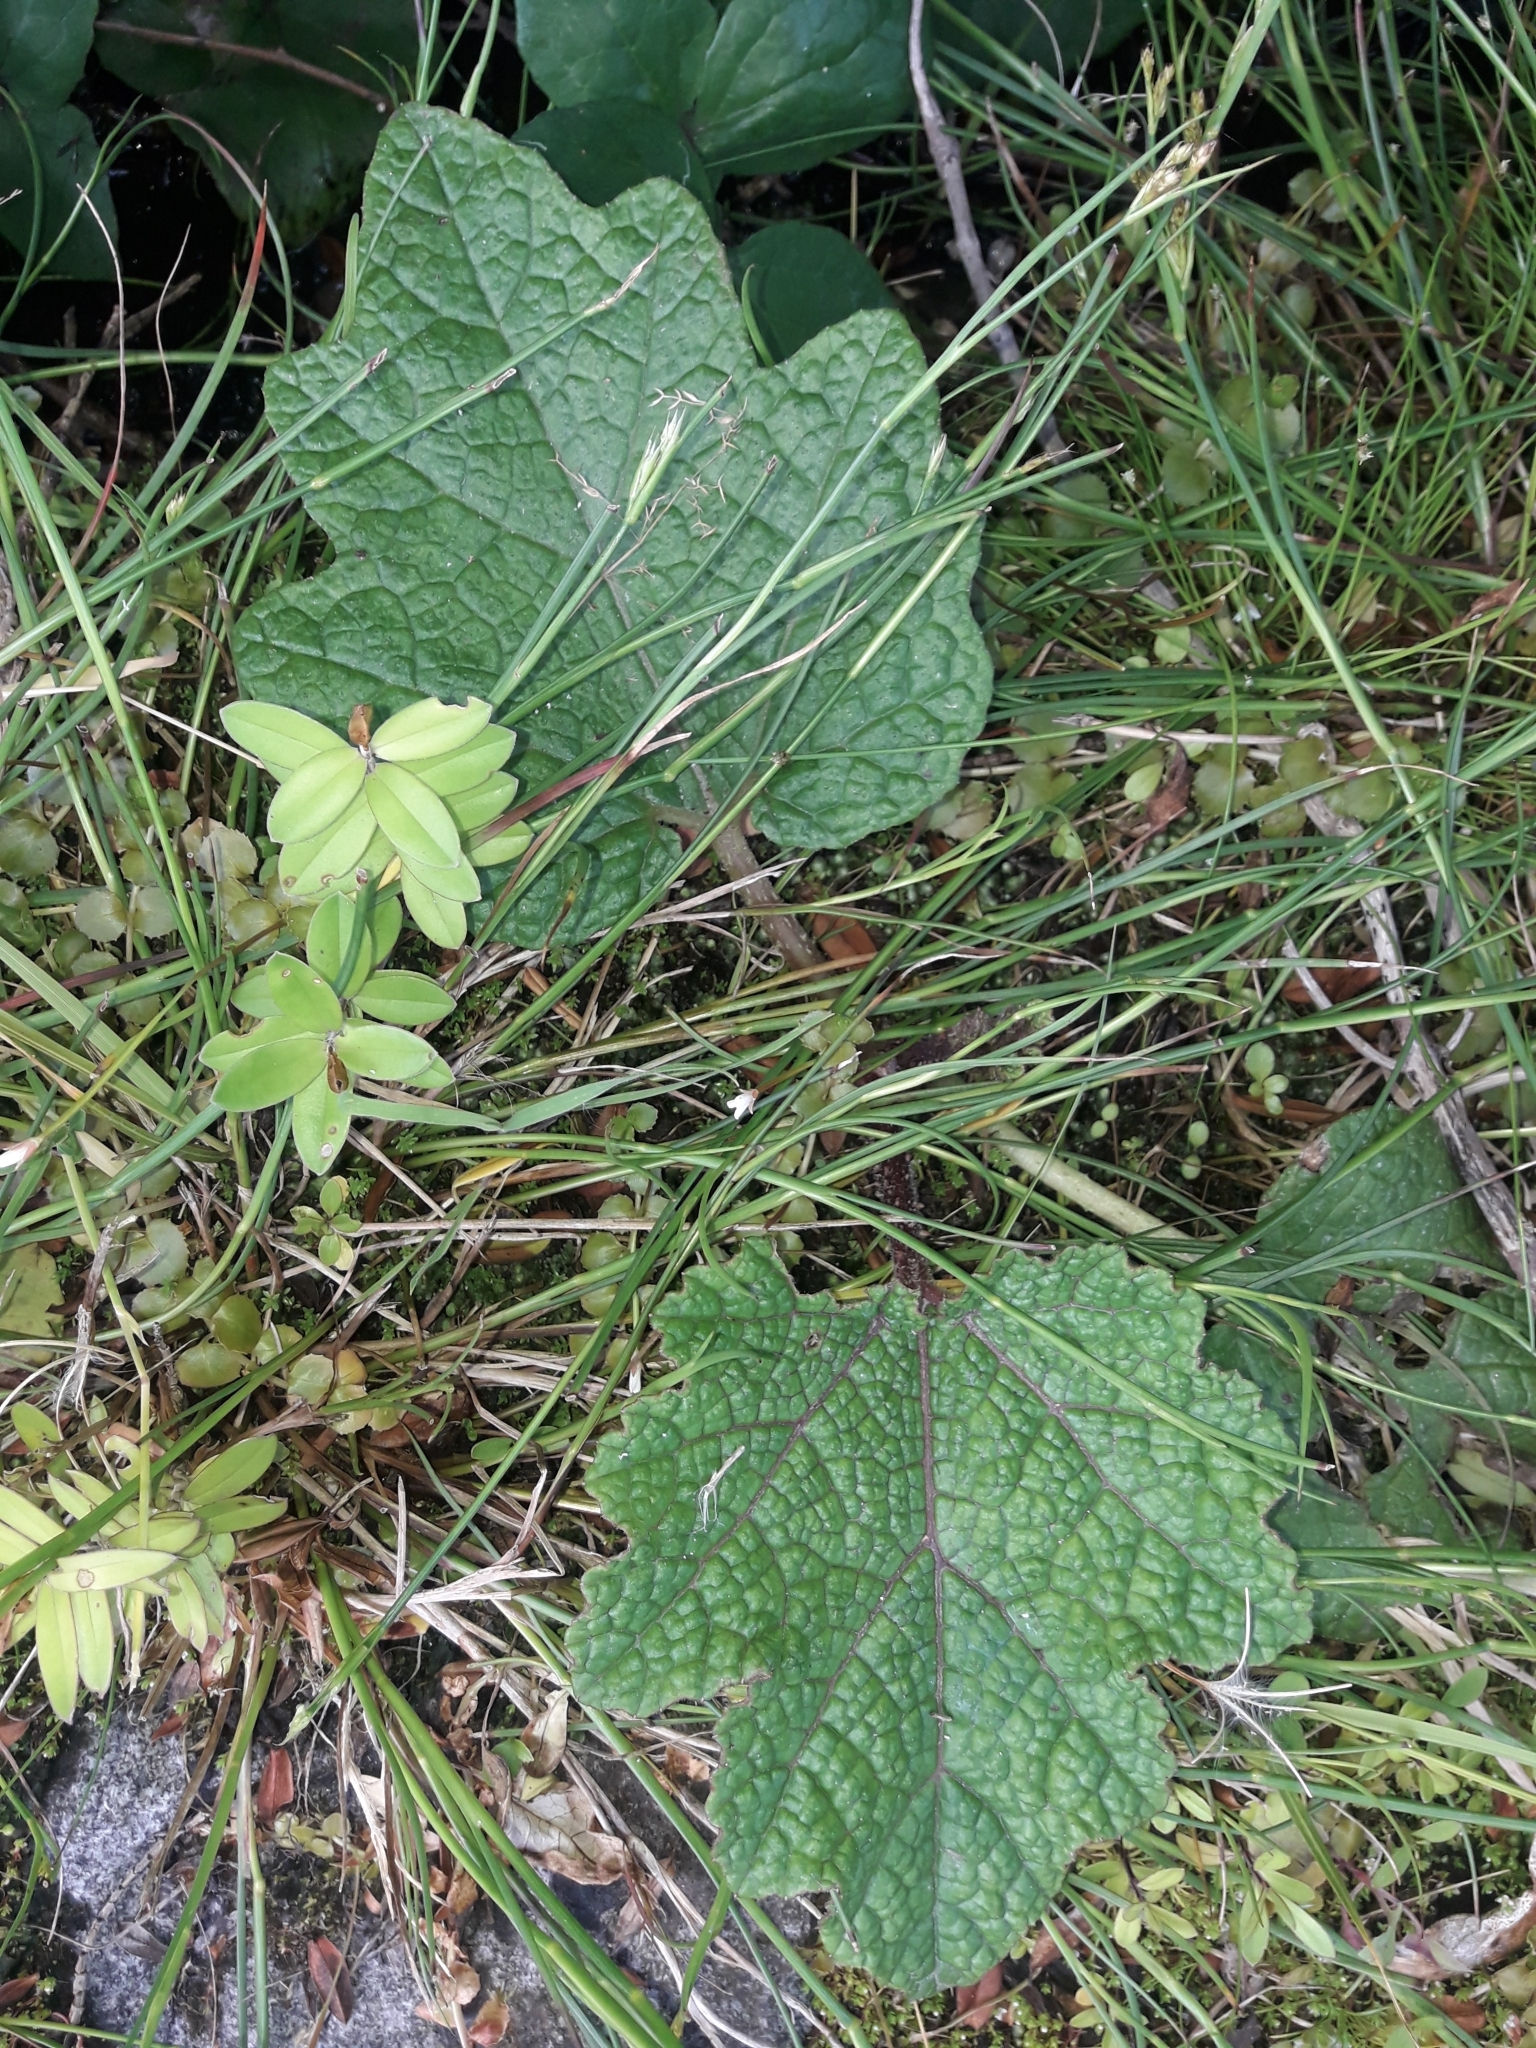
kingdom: Plantae
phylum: Tracheophyta
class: Magnoliopsida
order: Gunnerales
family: Gunneraceae
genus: Gunnera
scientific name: Gunnera tinctoria
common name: Giant-rhubarb
